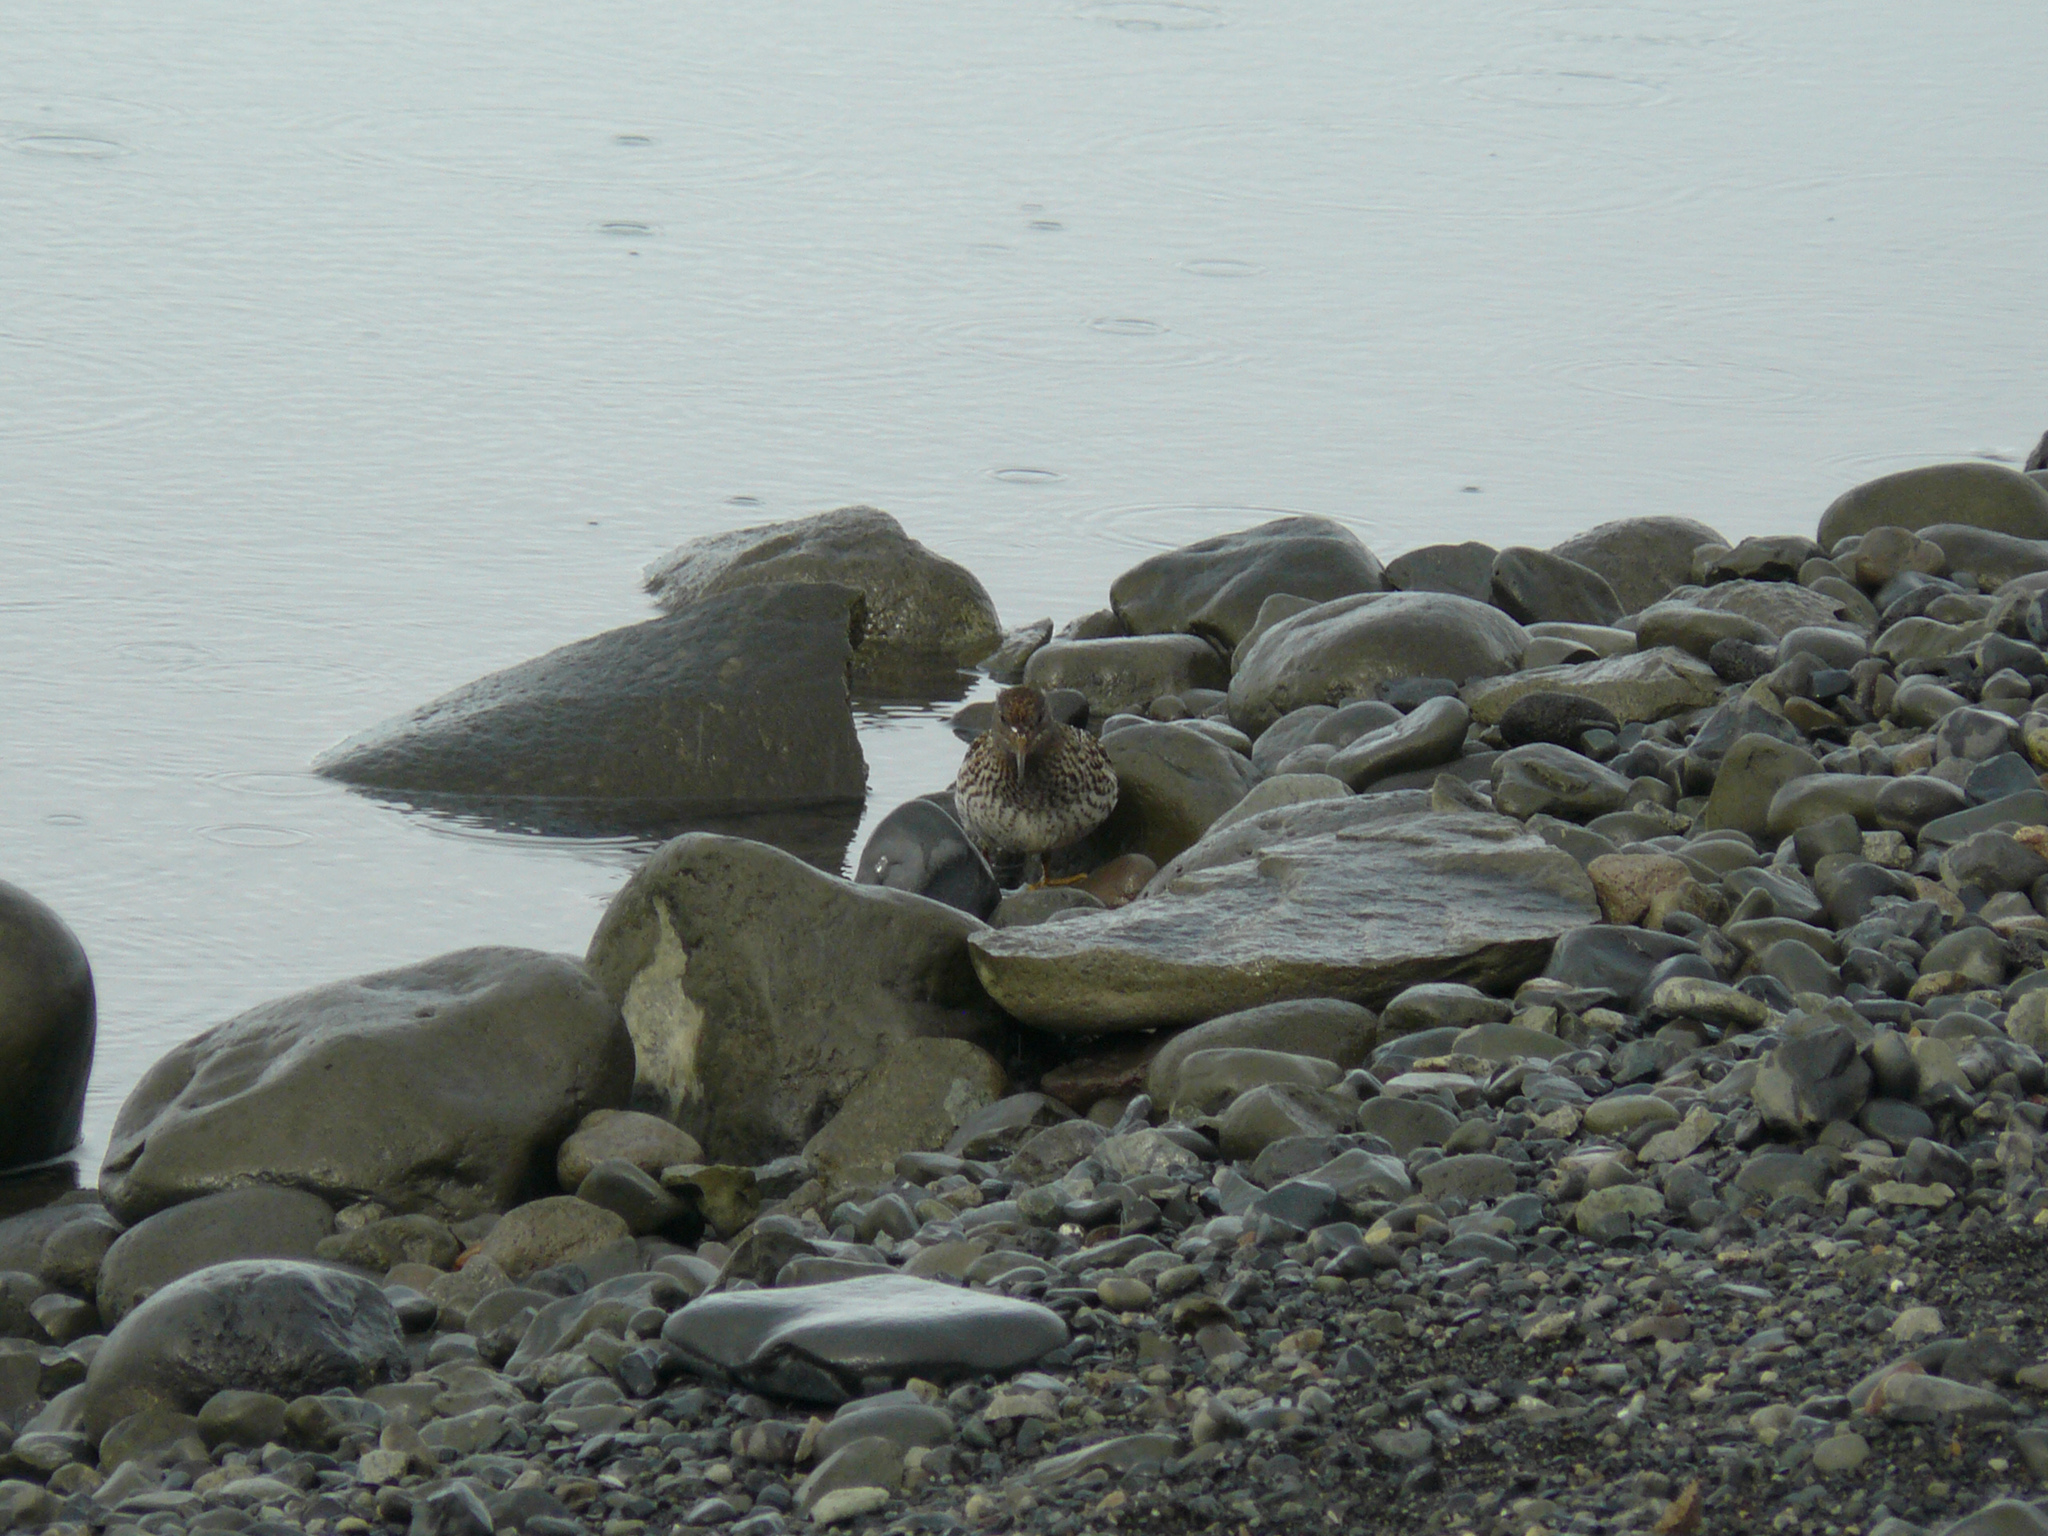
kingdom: Animalia
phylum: Chordata
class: Aves
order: Charadriiformes
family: Scolopacidae
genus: Calidris
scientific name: Calidris maritima
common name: Purple sandpiper
